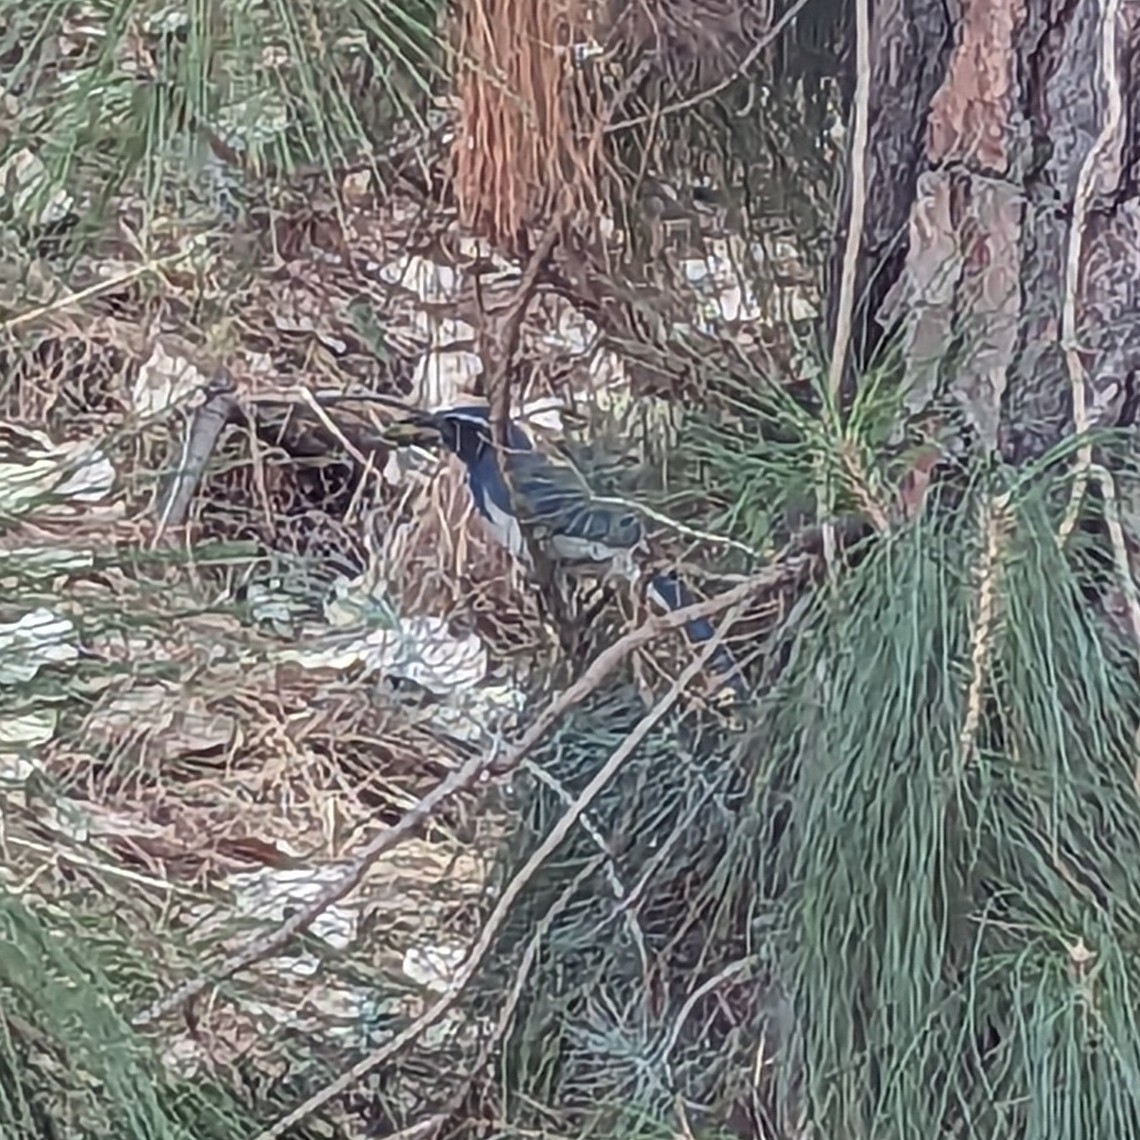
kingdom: Animalia
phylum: Chordata
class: Aves
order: Passeriformes
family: Corvidae
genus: Aphelocoma
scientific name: Aphelocoma californica
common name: California scrub-jay
